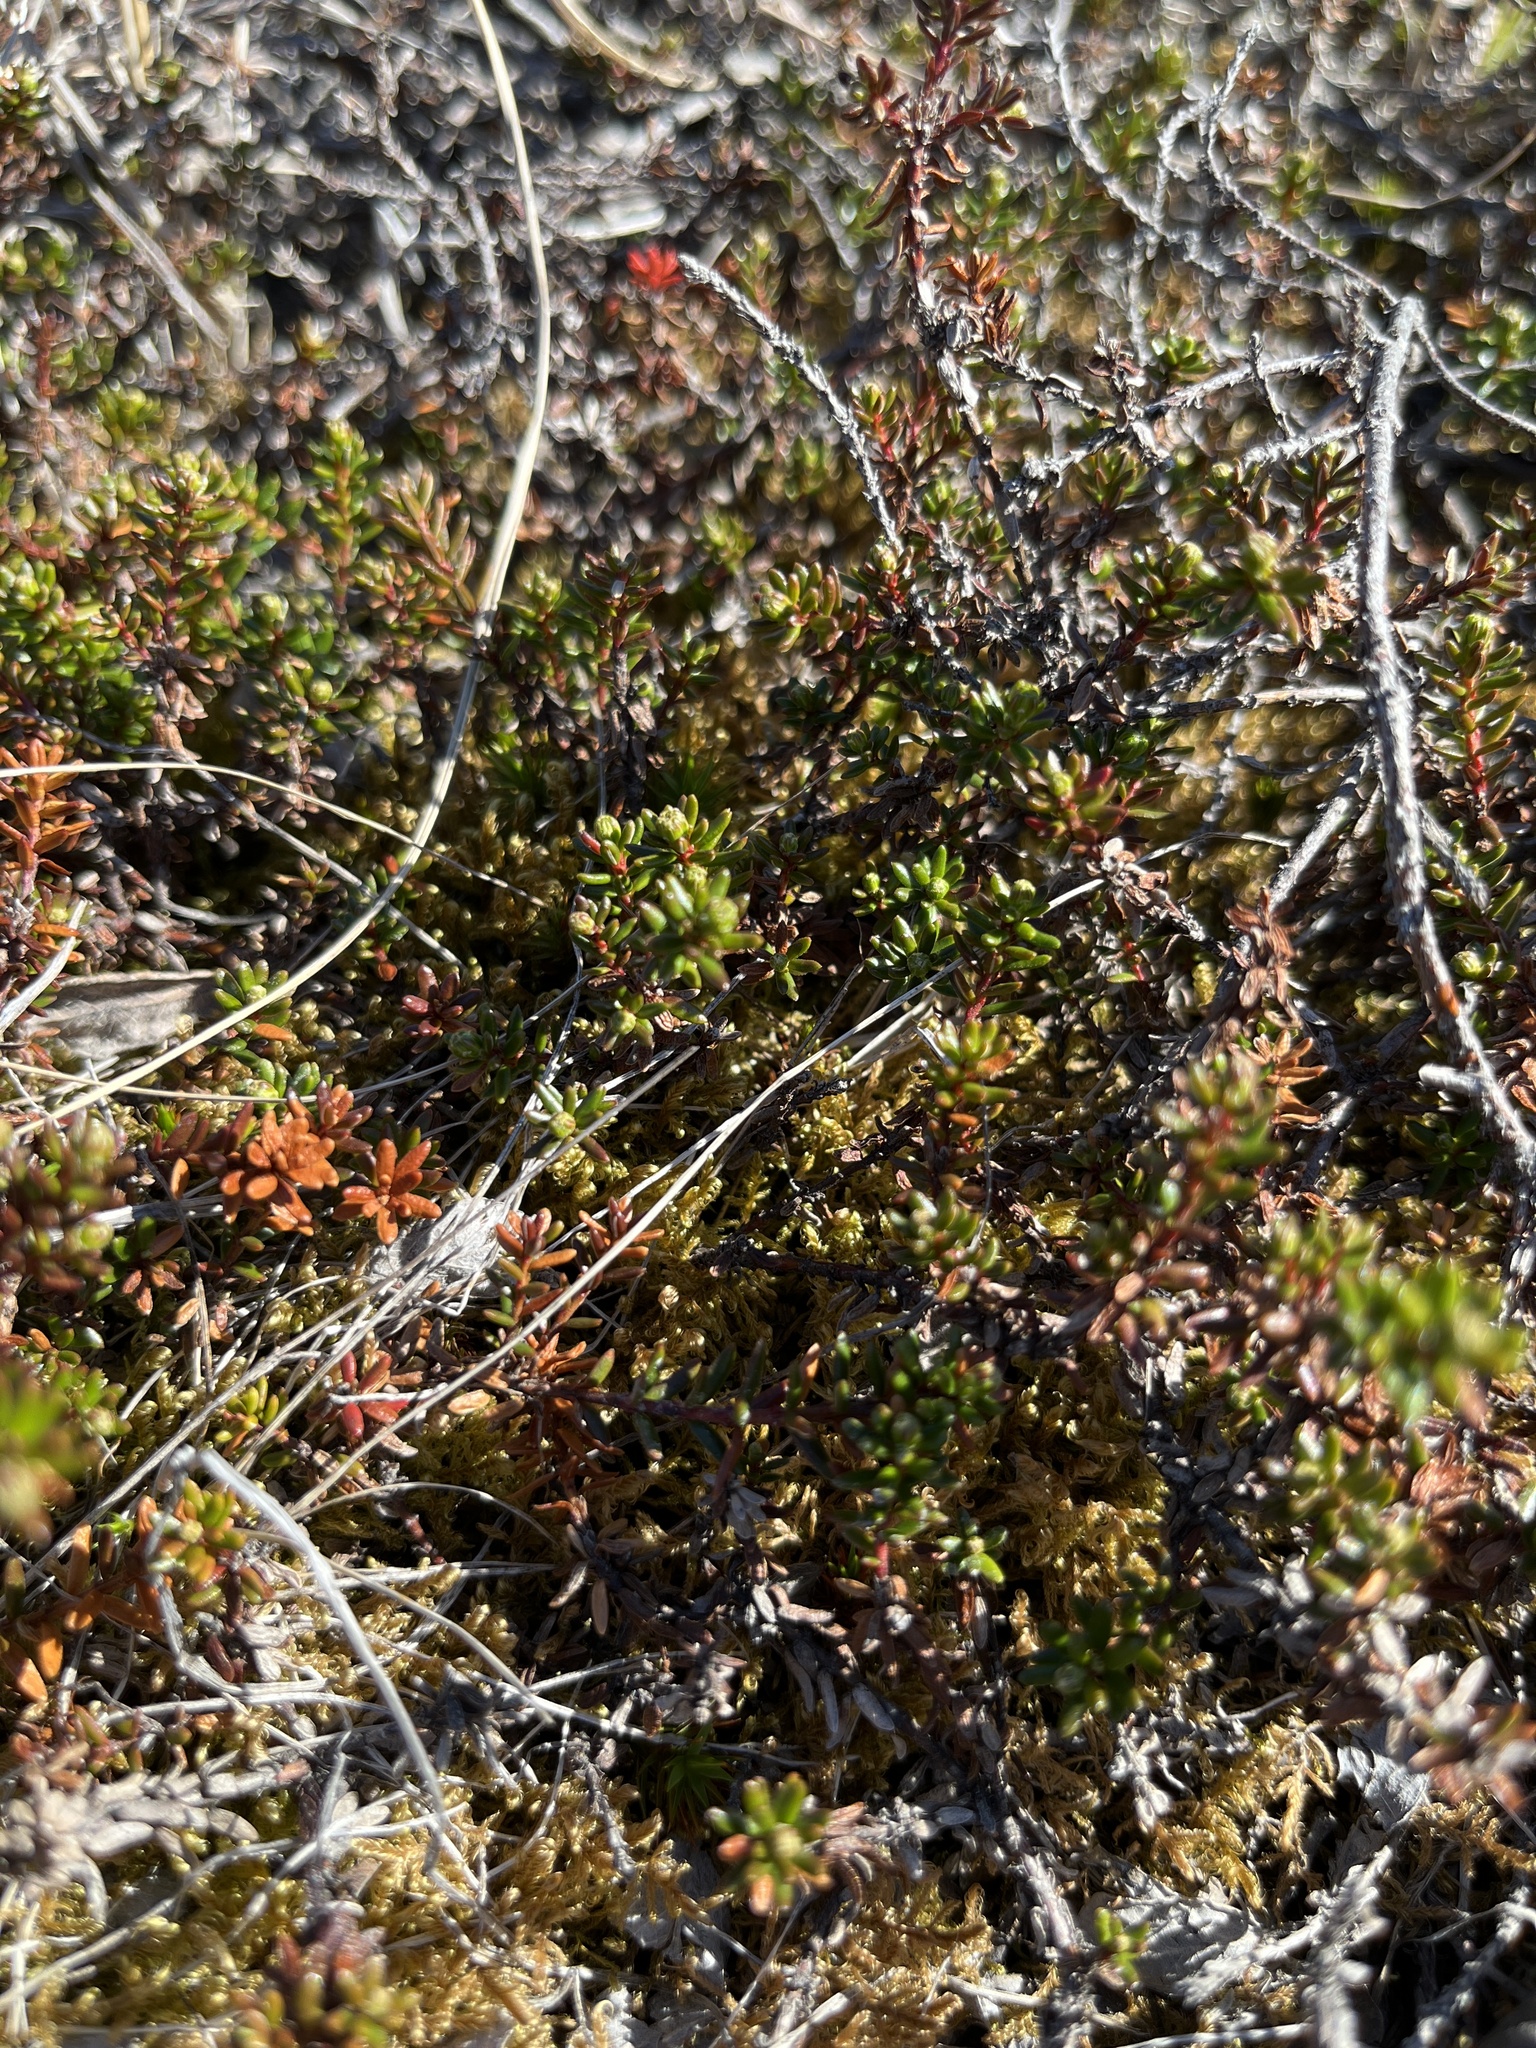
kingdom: Plantae
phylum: Tracheophyta
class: Magnoliopsida
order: Ericales
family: Ericaceae
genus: Empetrum
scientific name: Empetrum hermaphroditum
